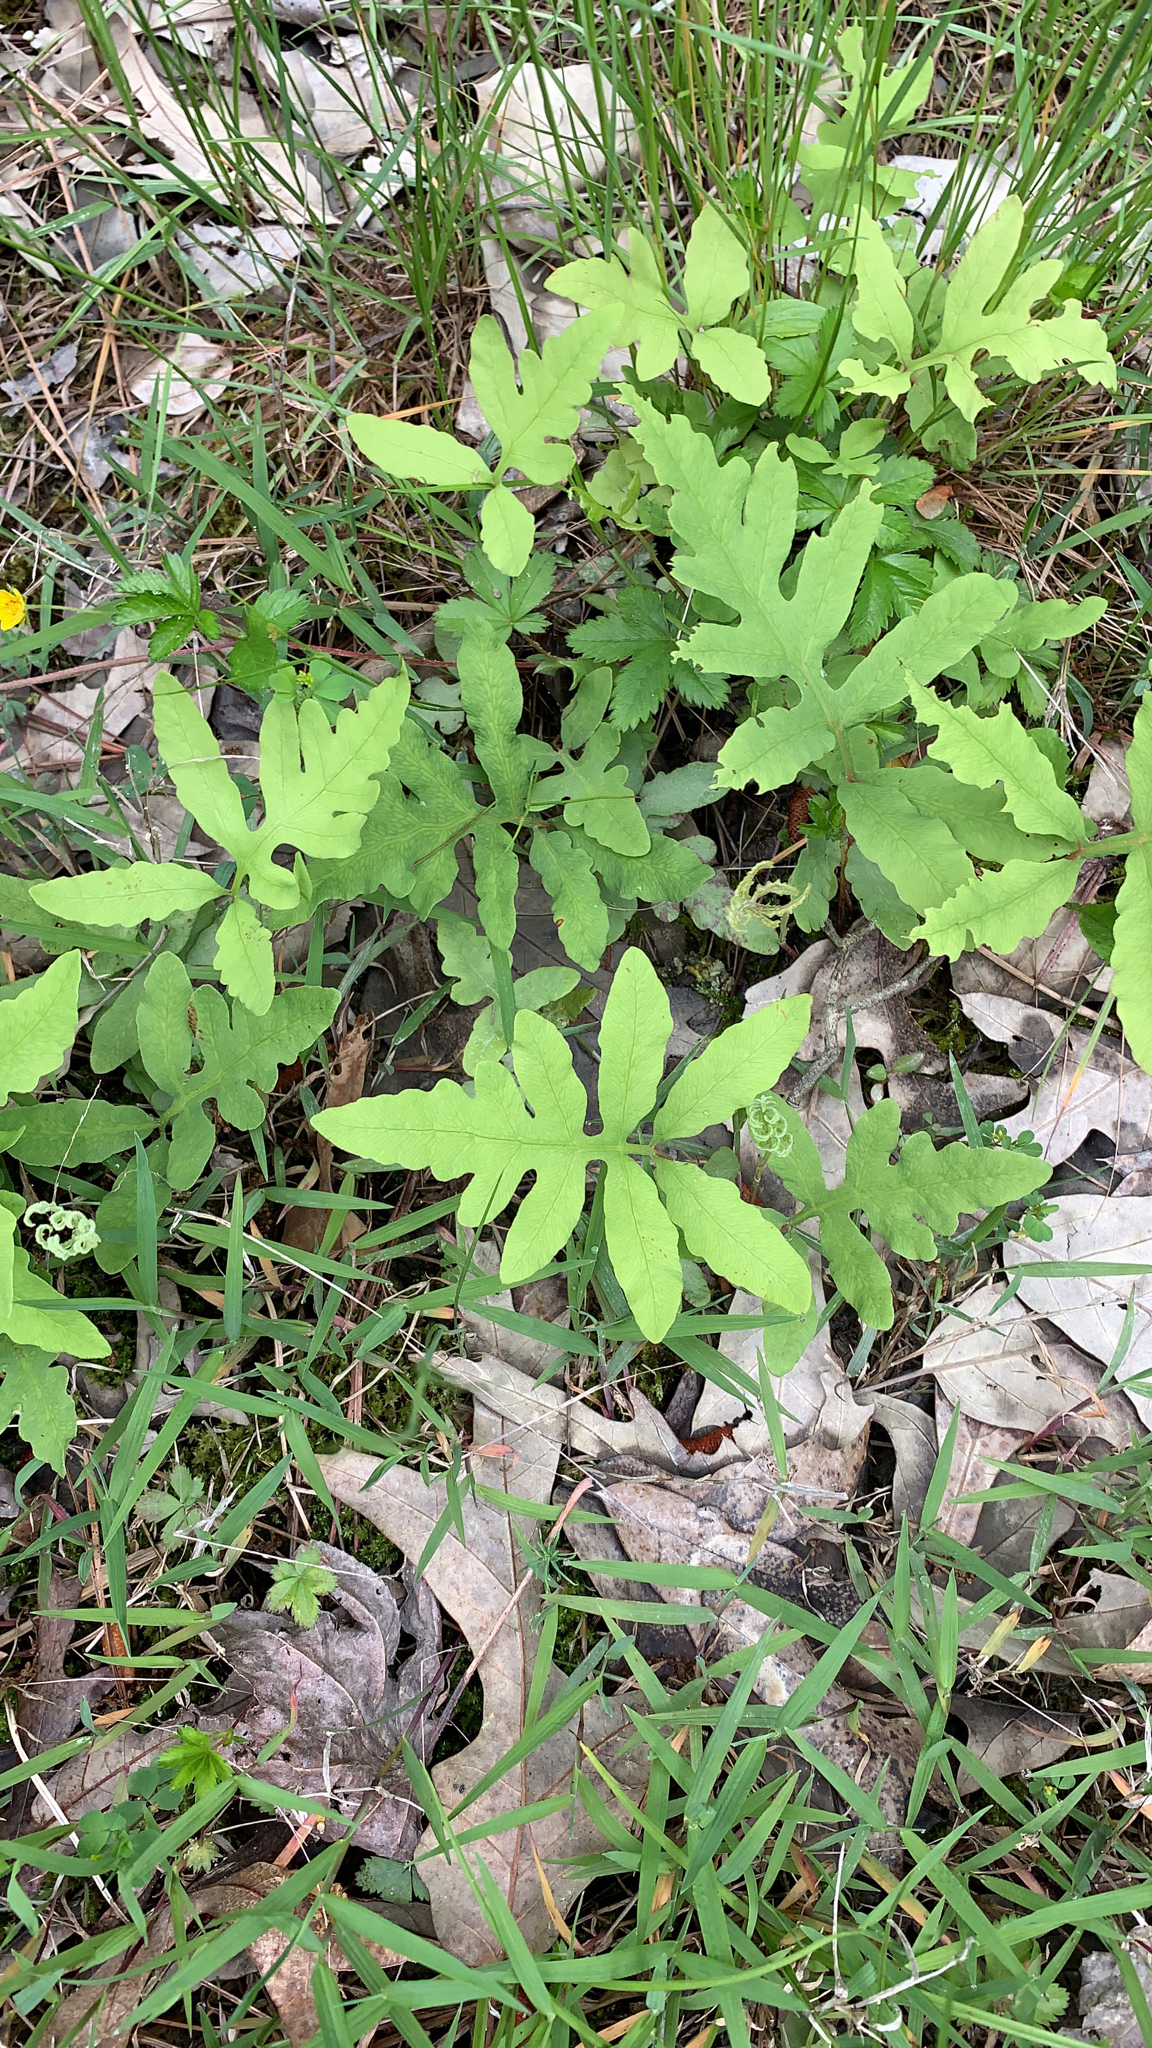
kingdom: Plantae
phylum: Tracheophyta
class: Polypodiopsida
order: Polypodiales
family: Onocleaceae
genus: Onoclea
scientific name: Onoclea sensibilis
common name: Sensitive fern
